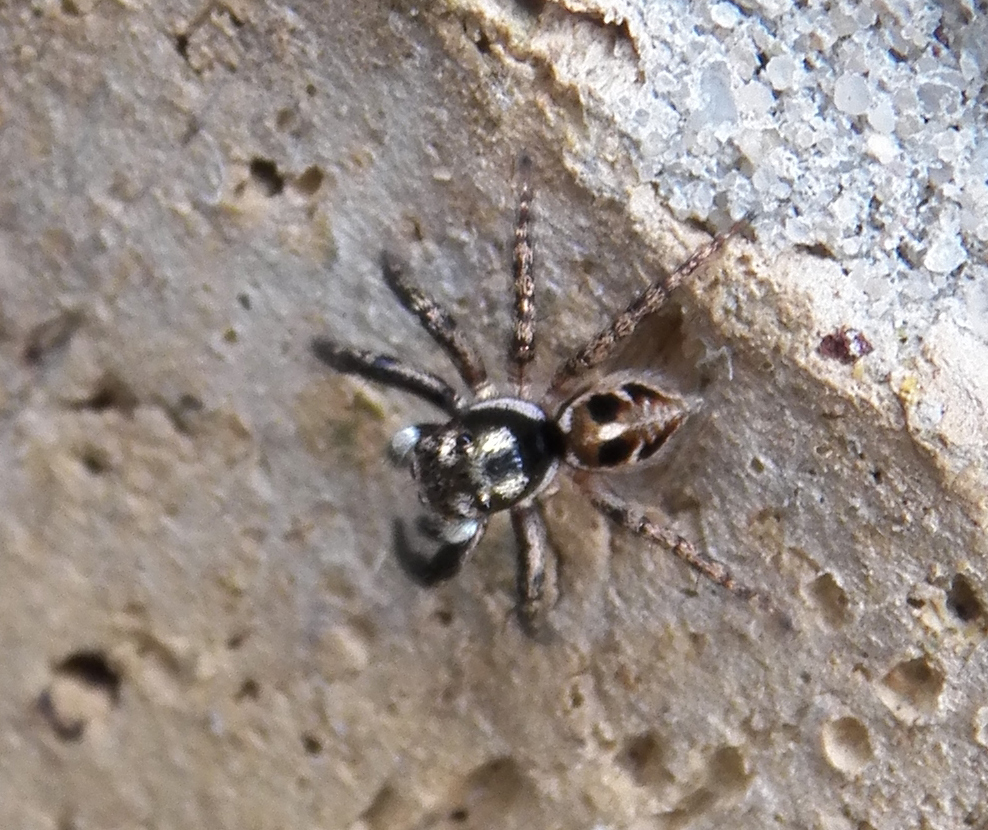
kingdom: Animalia
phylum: Arthropoda
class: Arachnida
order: Araneae
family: Salticidae
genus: Anasaitis
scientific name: Anasaitis canosa
